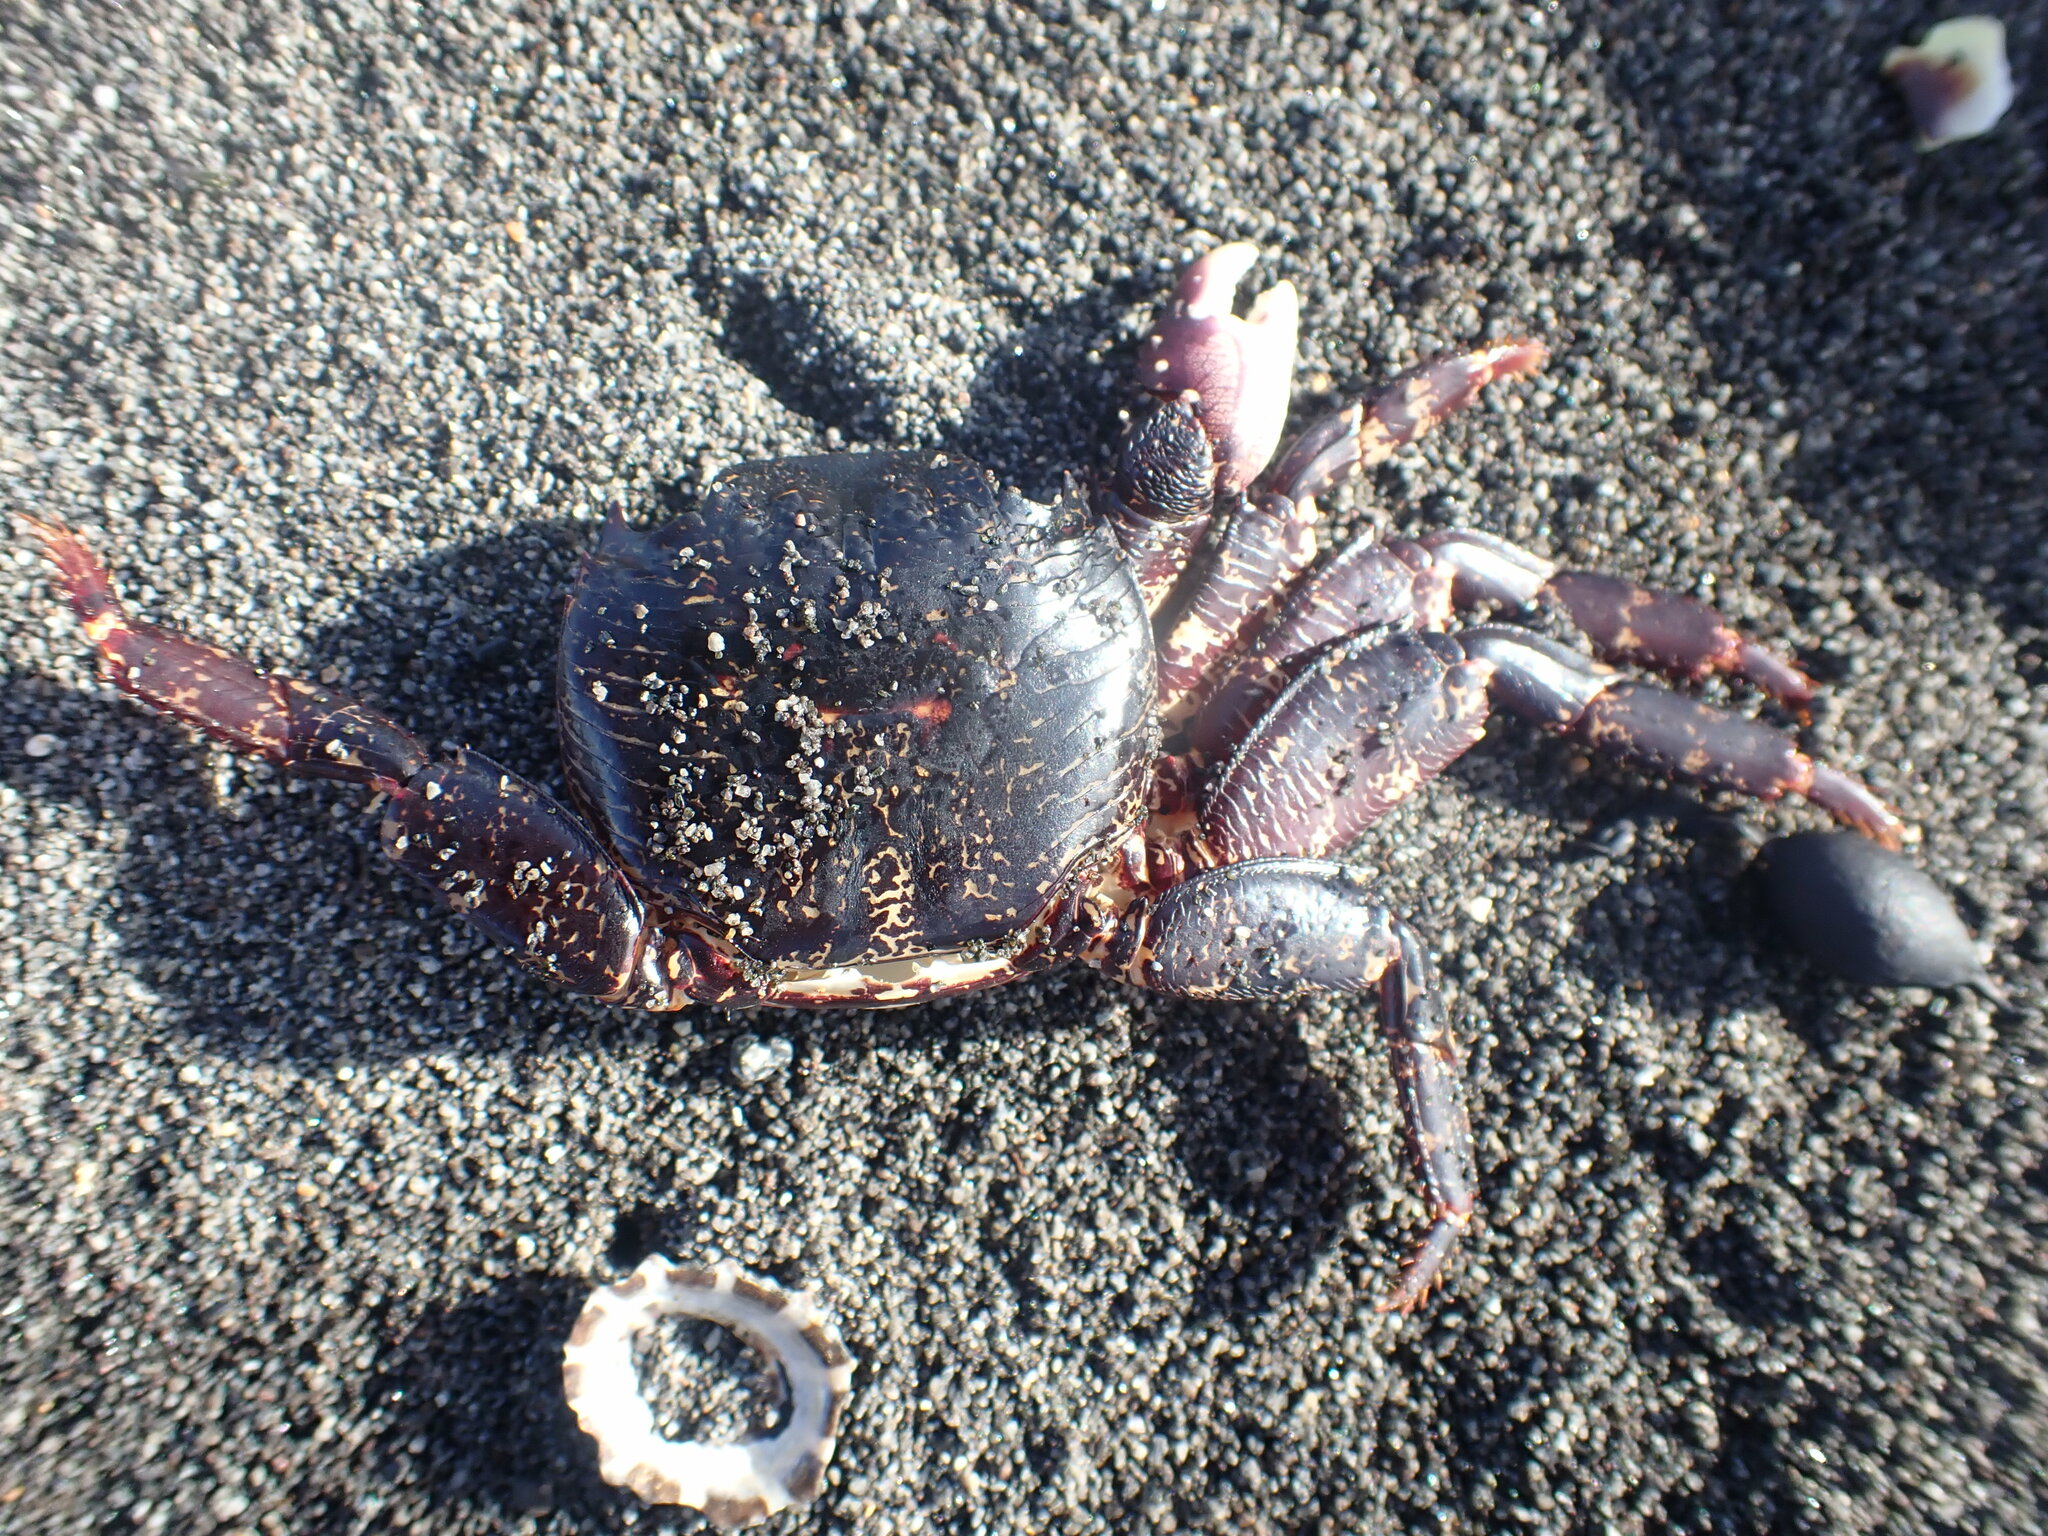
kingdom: Animalia
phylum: Arthropoda
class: Malacostraca
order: Decapoda
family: Grapsidae
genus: Leptograpsus
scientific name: Leptograpsus variegatus
